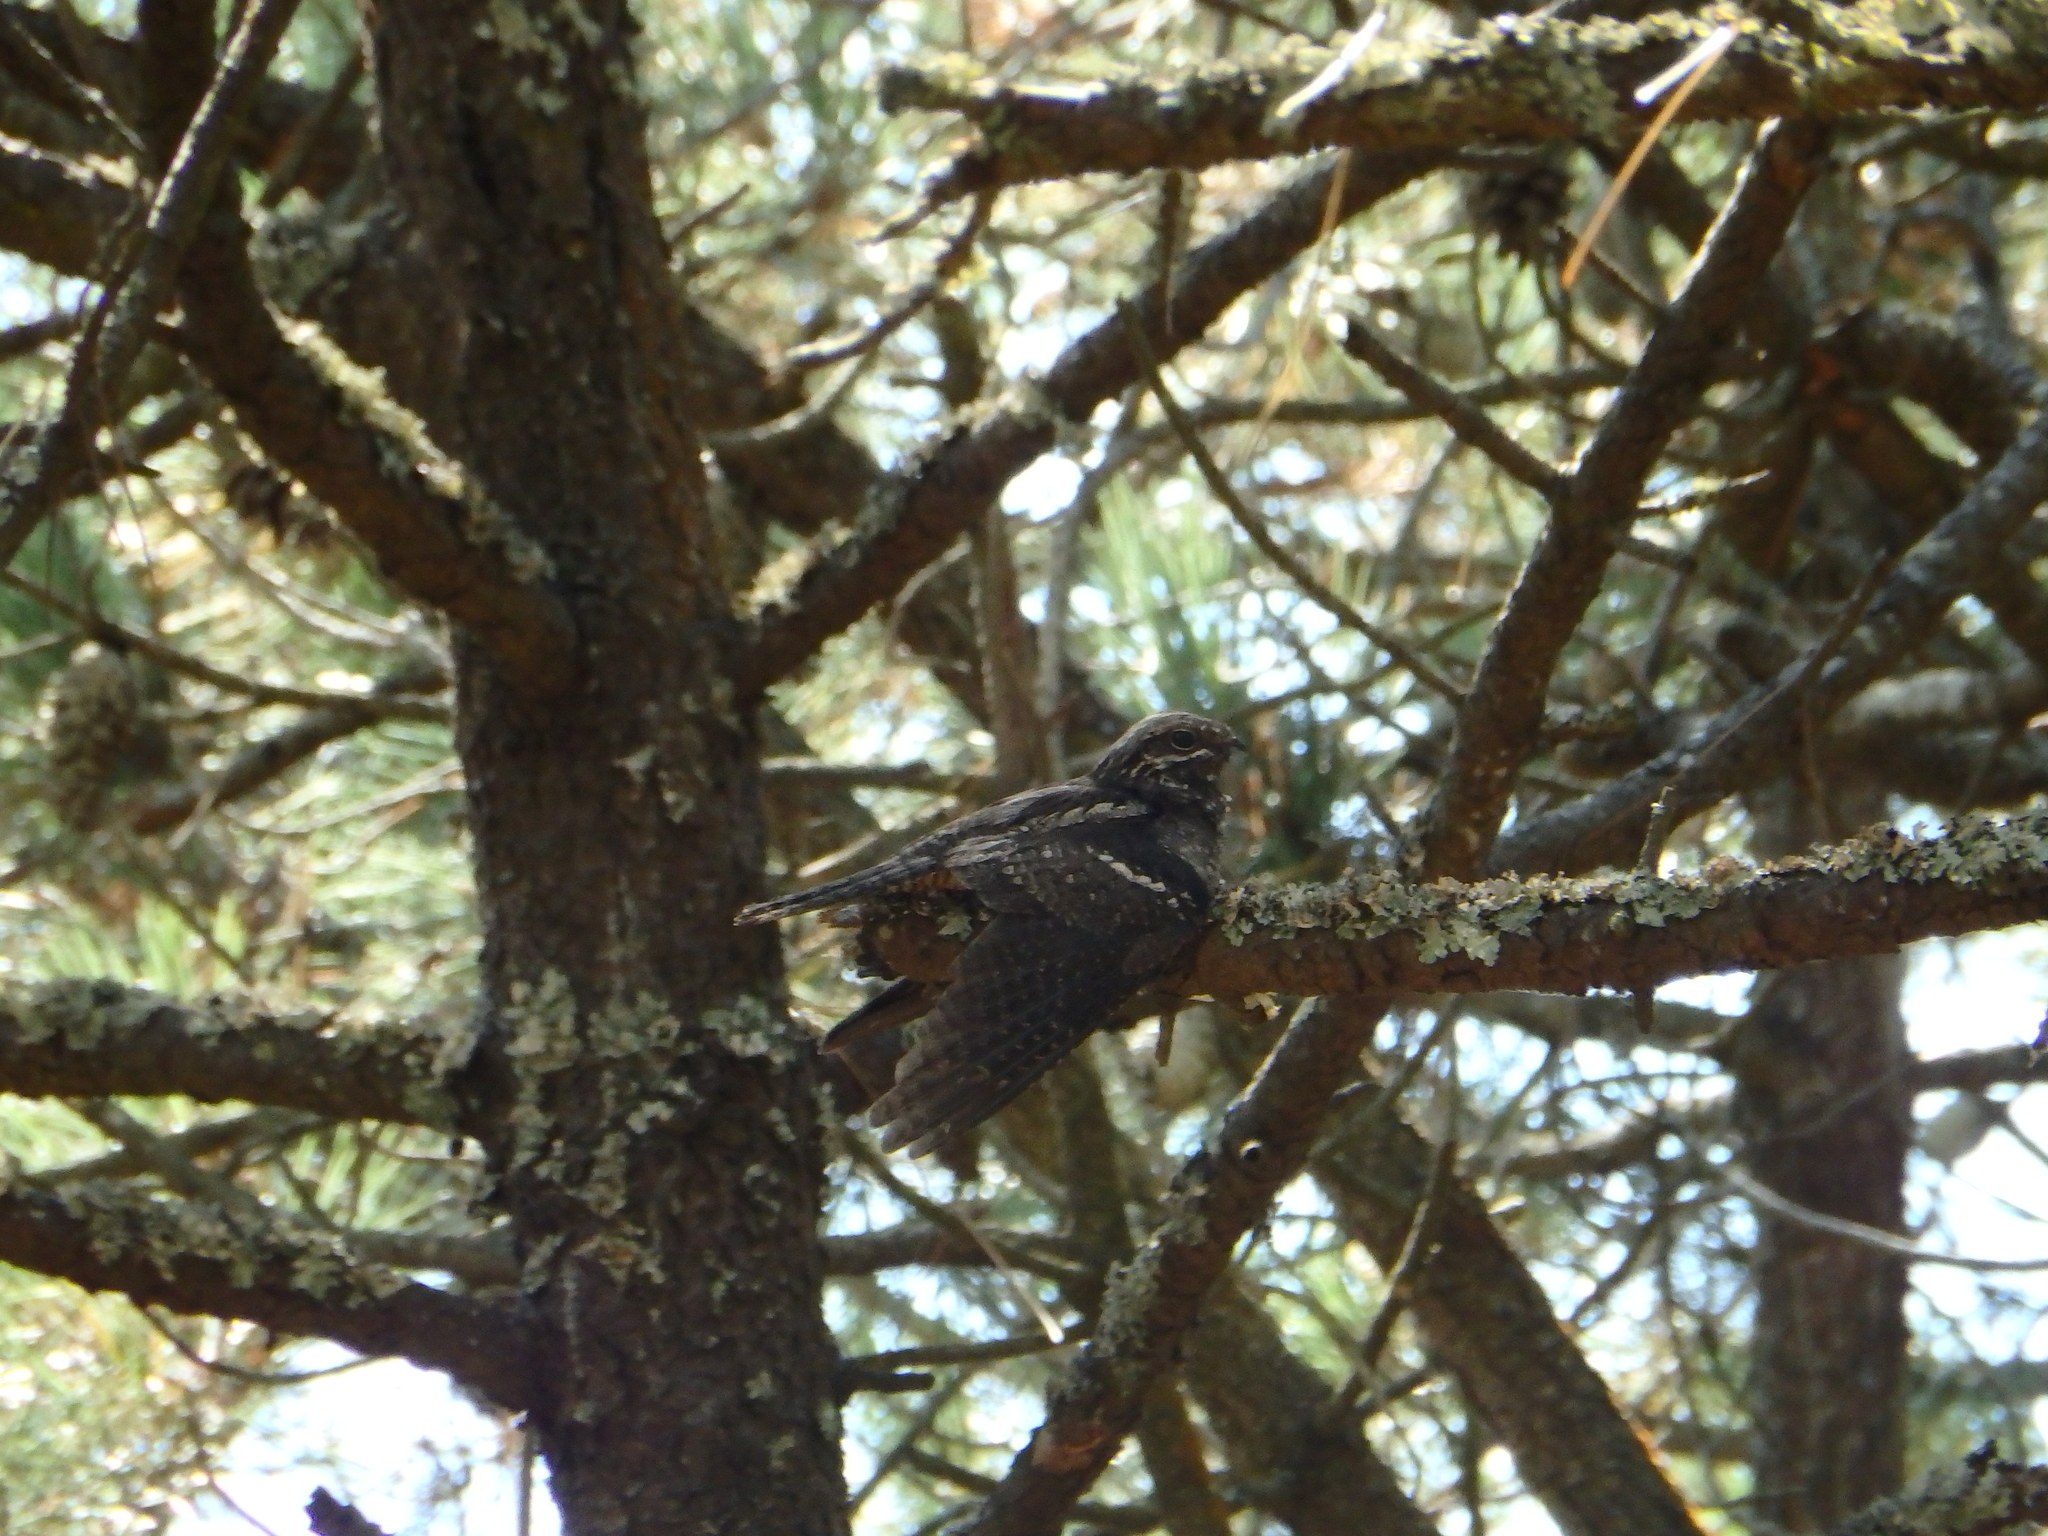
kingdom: Animalia
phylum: Chordata
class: Aves
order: Caprimulgiformes
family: Caprimulgidae
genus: Caprimulgus
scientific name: Caprimulgus europaeus
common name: European nightjar
